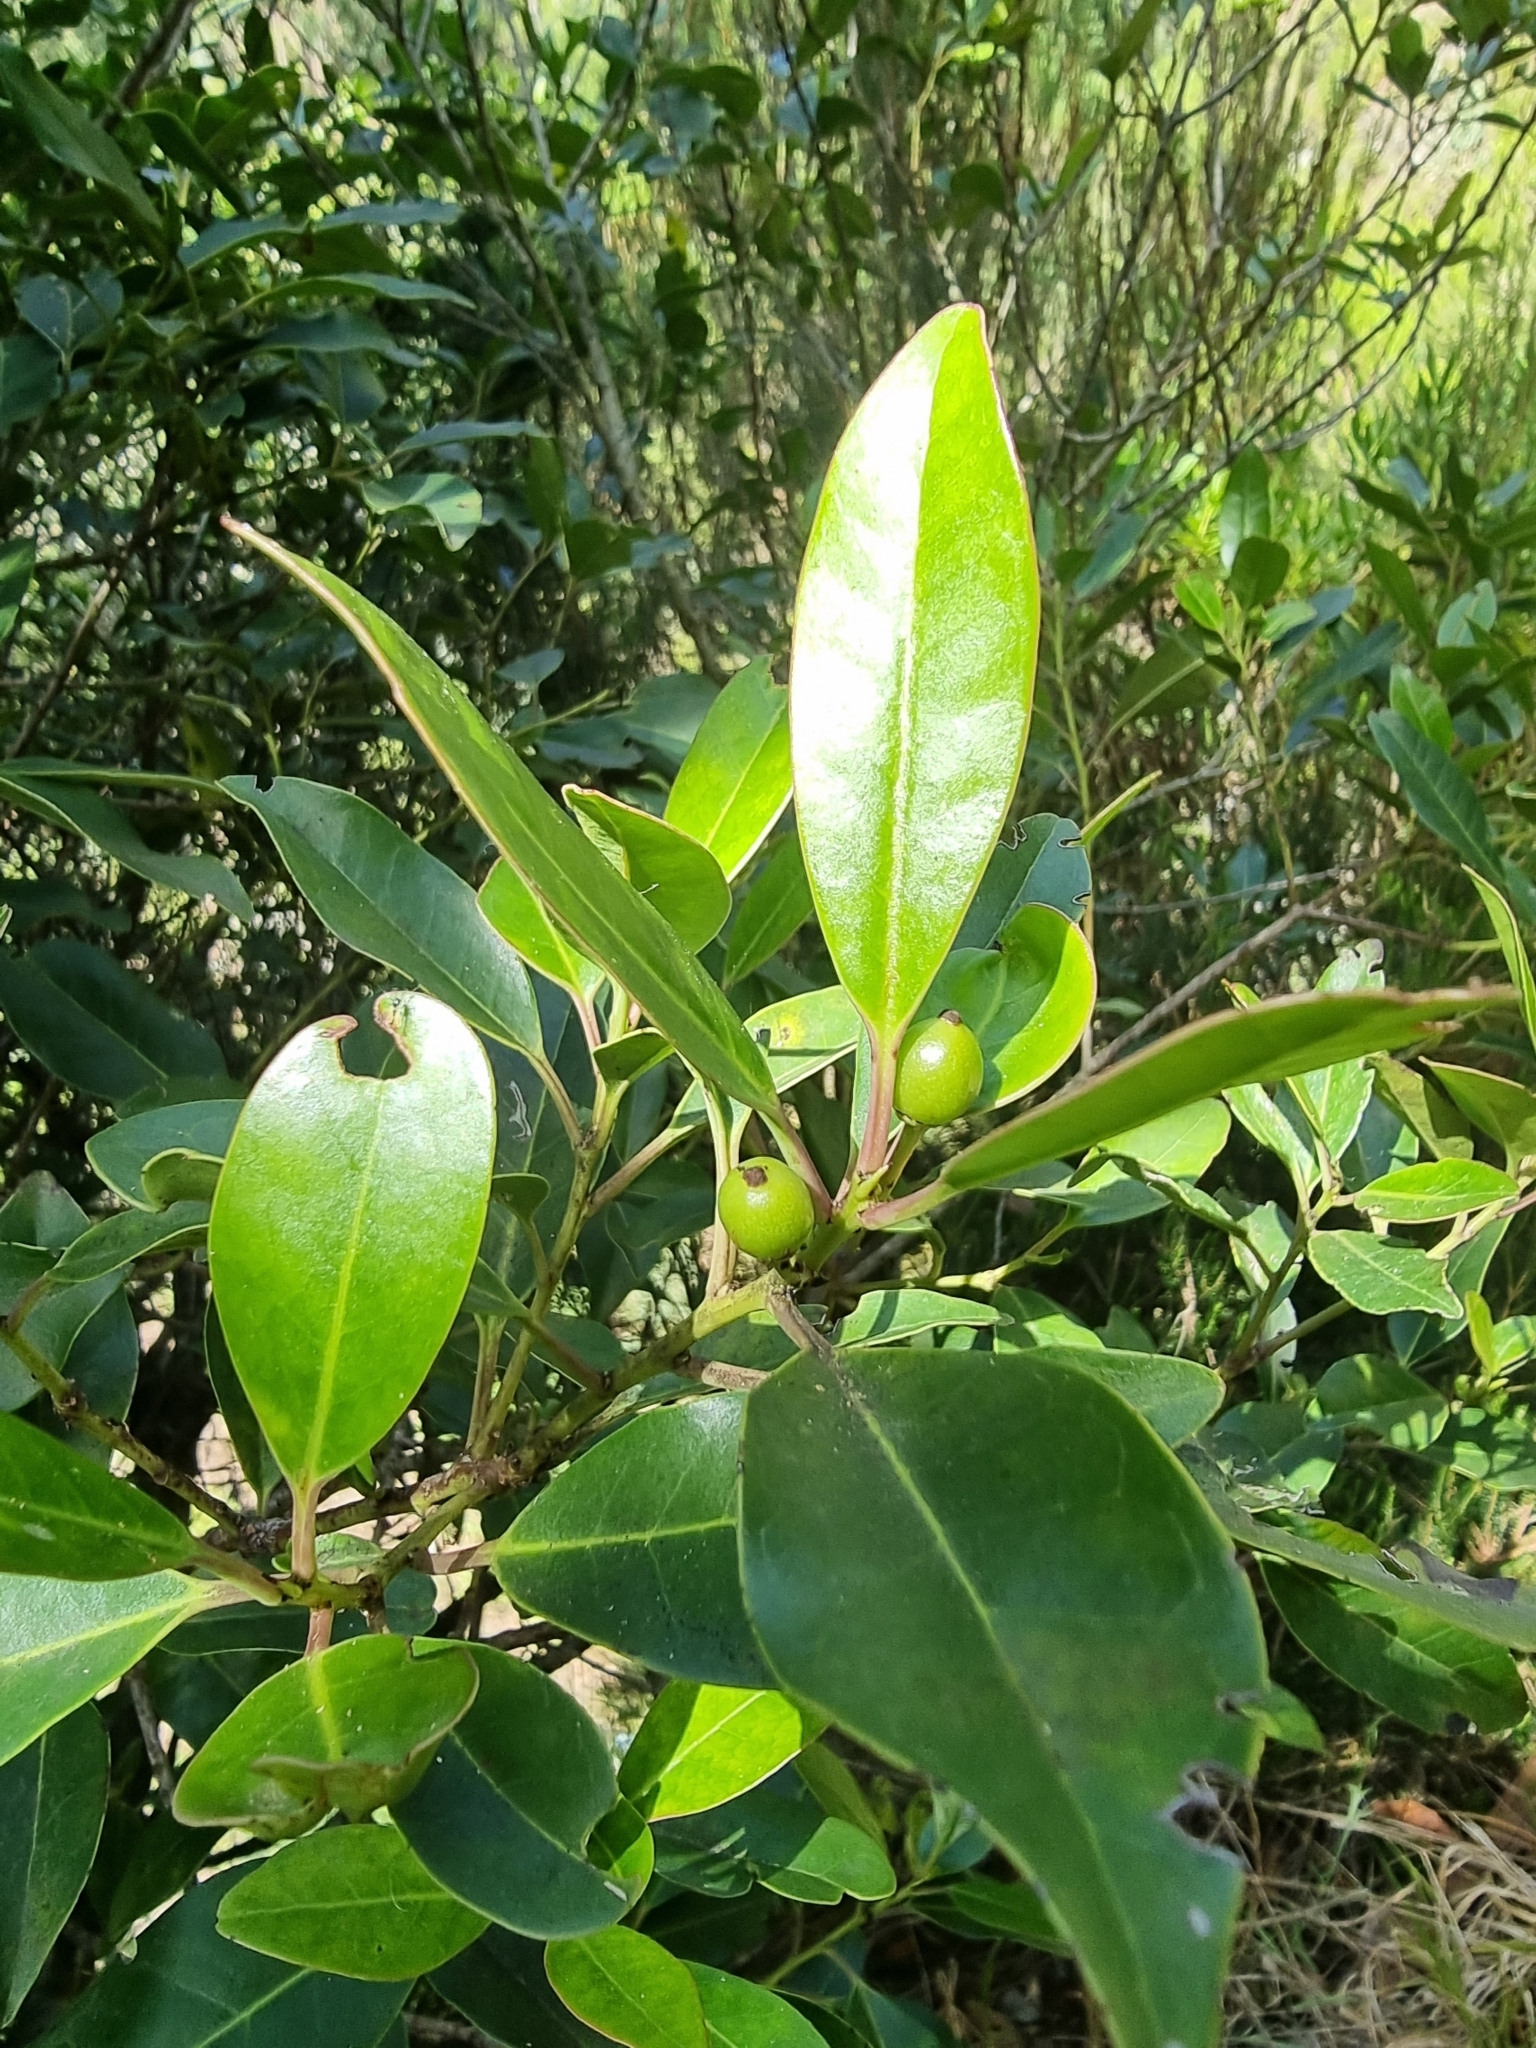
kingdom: Plantae
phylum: Tracheophyta
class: Magnoliopsida
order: Aquifoliales
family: Aquifoliaceae
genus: Ilex
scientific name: Ilex canariensis
